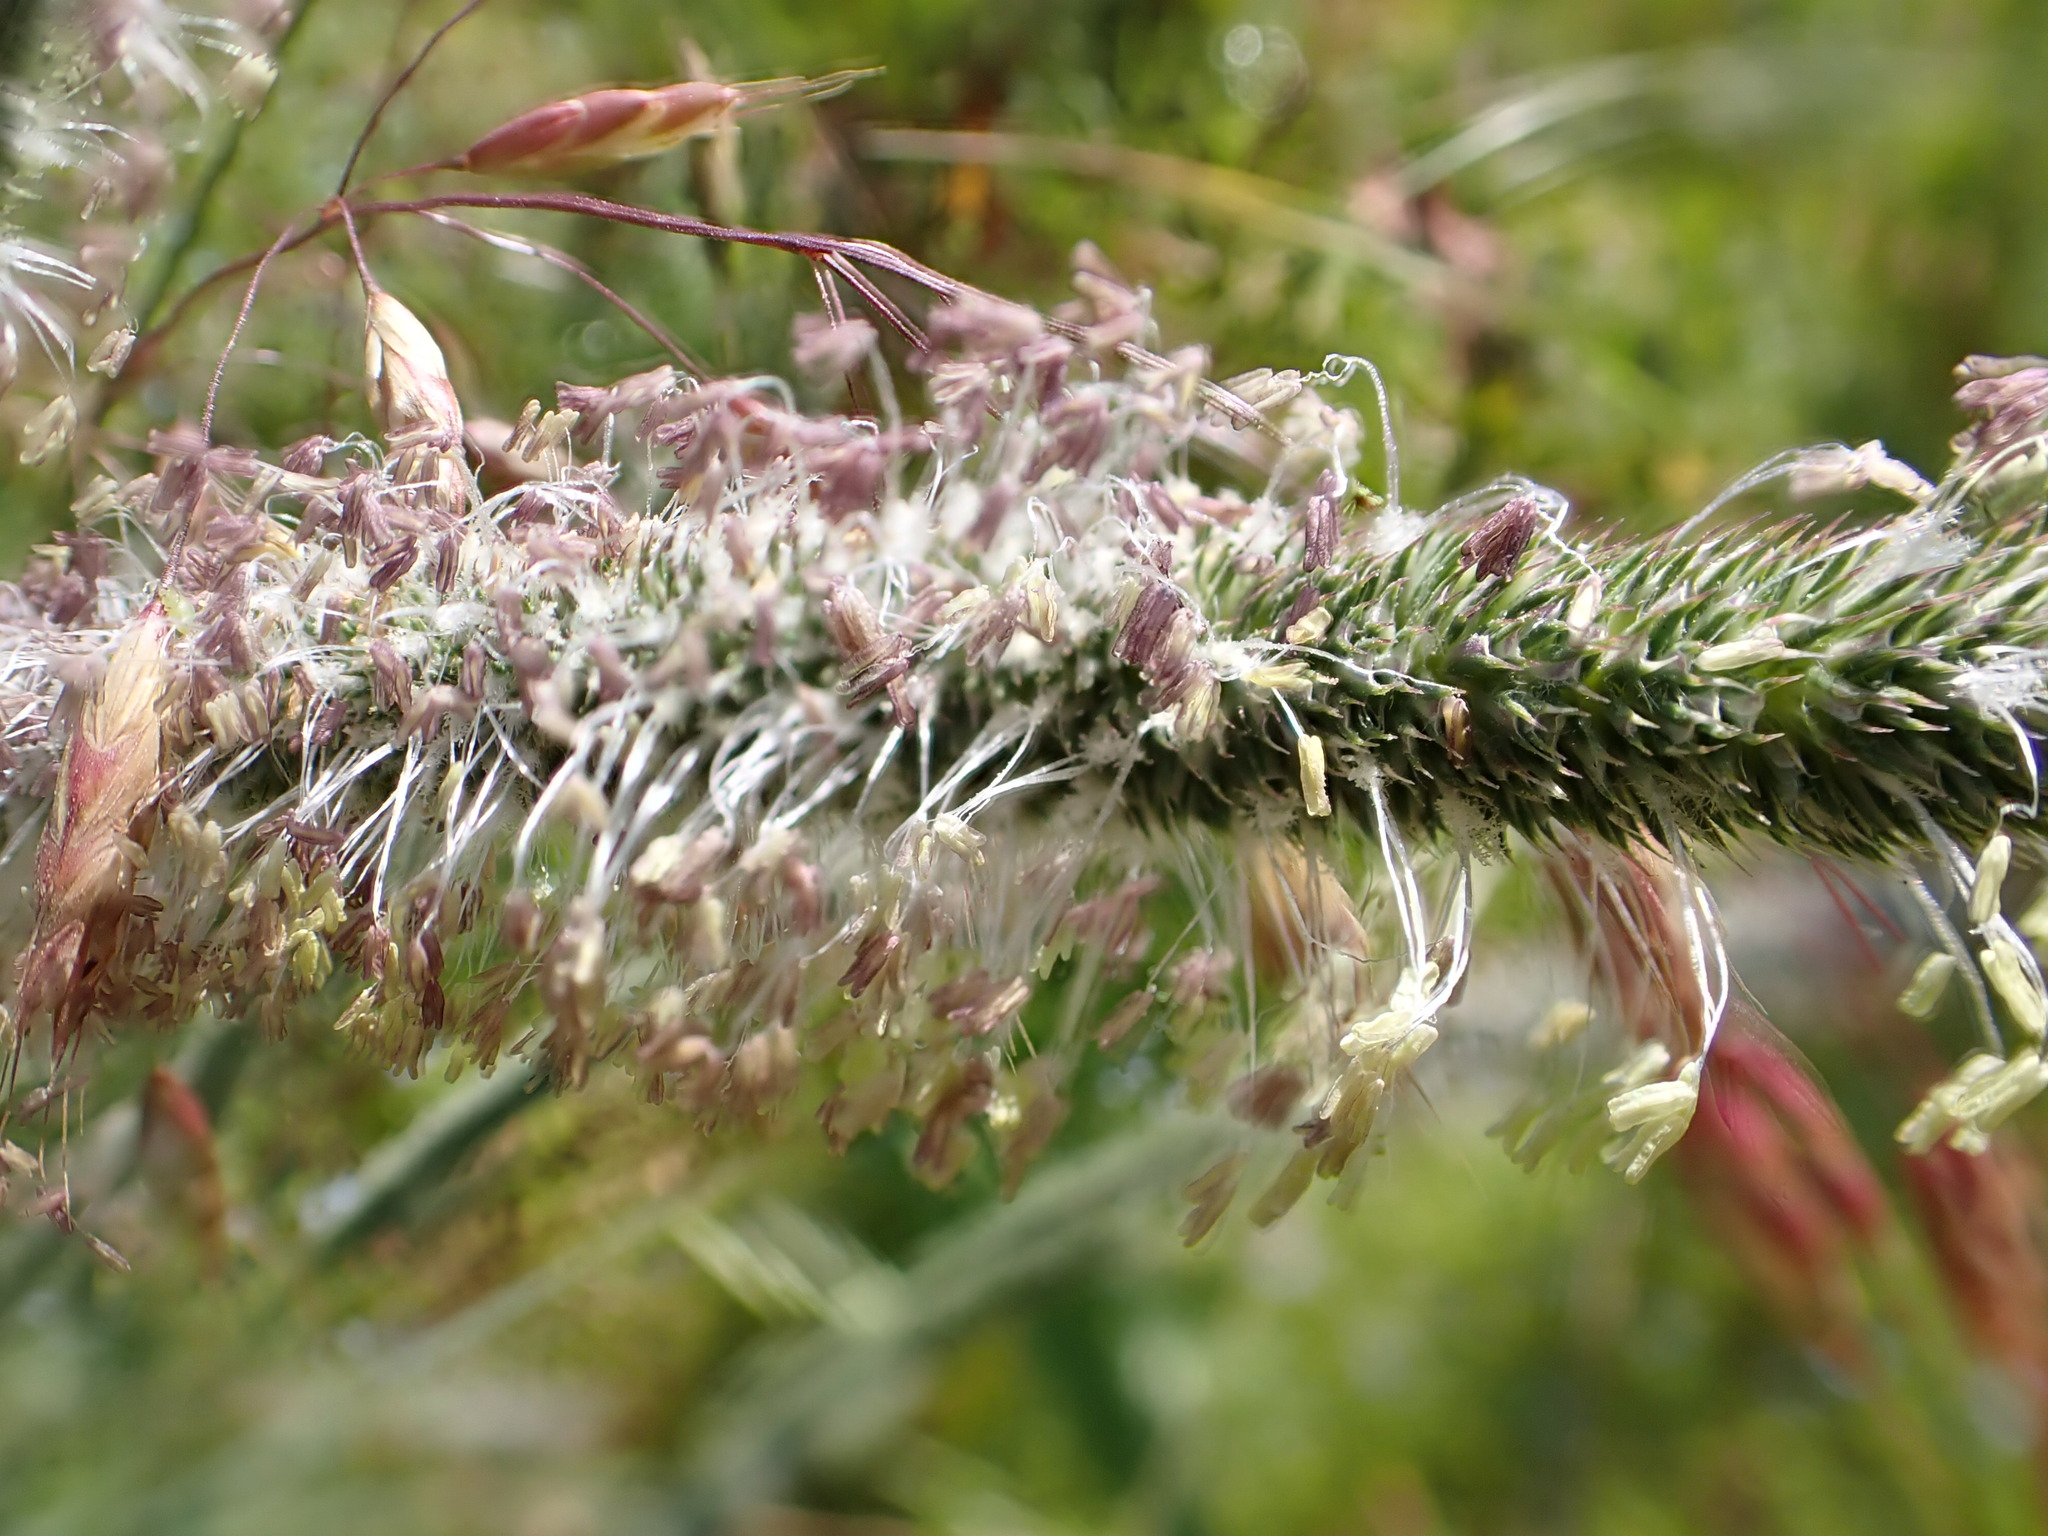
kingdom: Plantae
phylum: Tracheophyta
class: Liliopsida
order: Poales
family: Poaceae
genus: Phleum
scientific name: Phleum pratense
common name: Timothy grass
